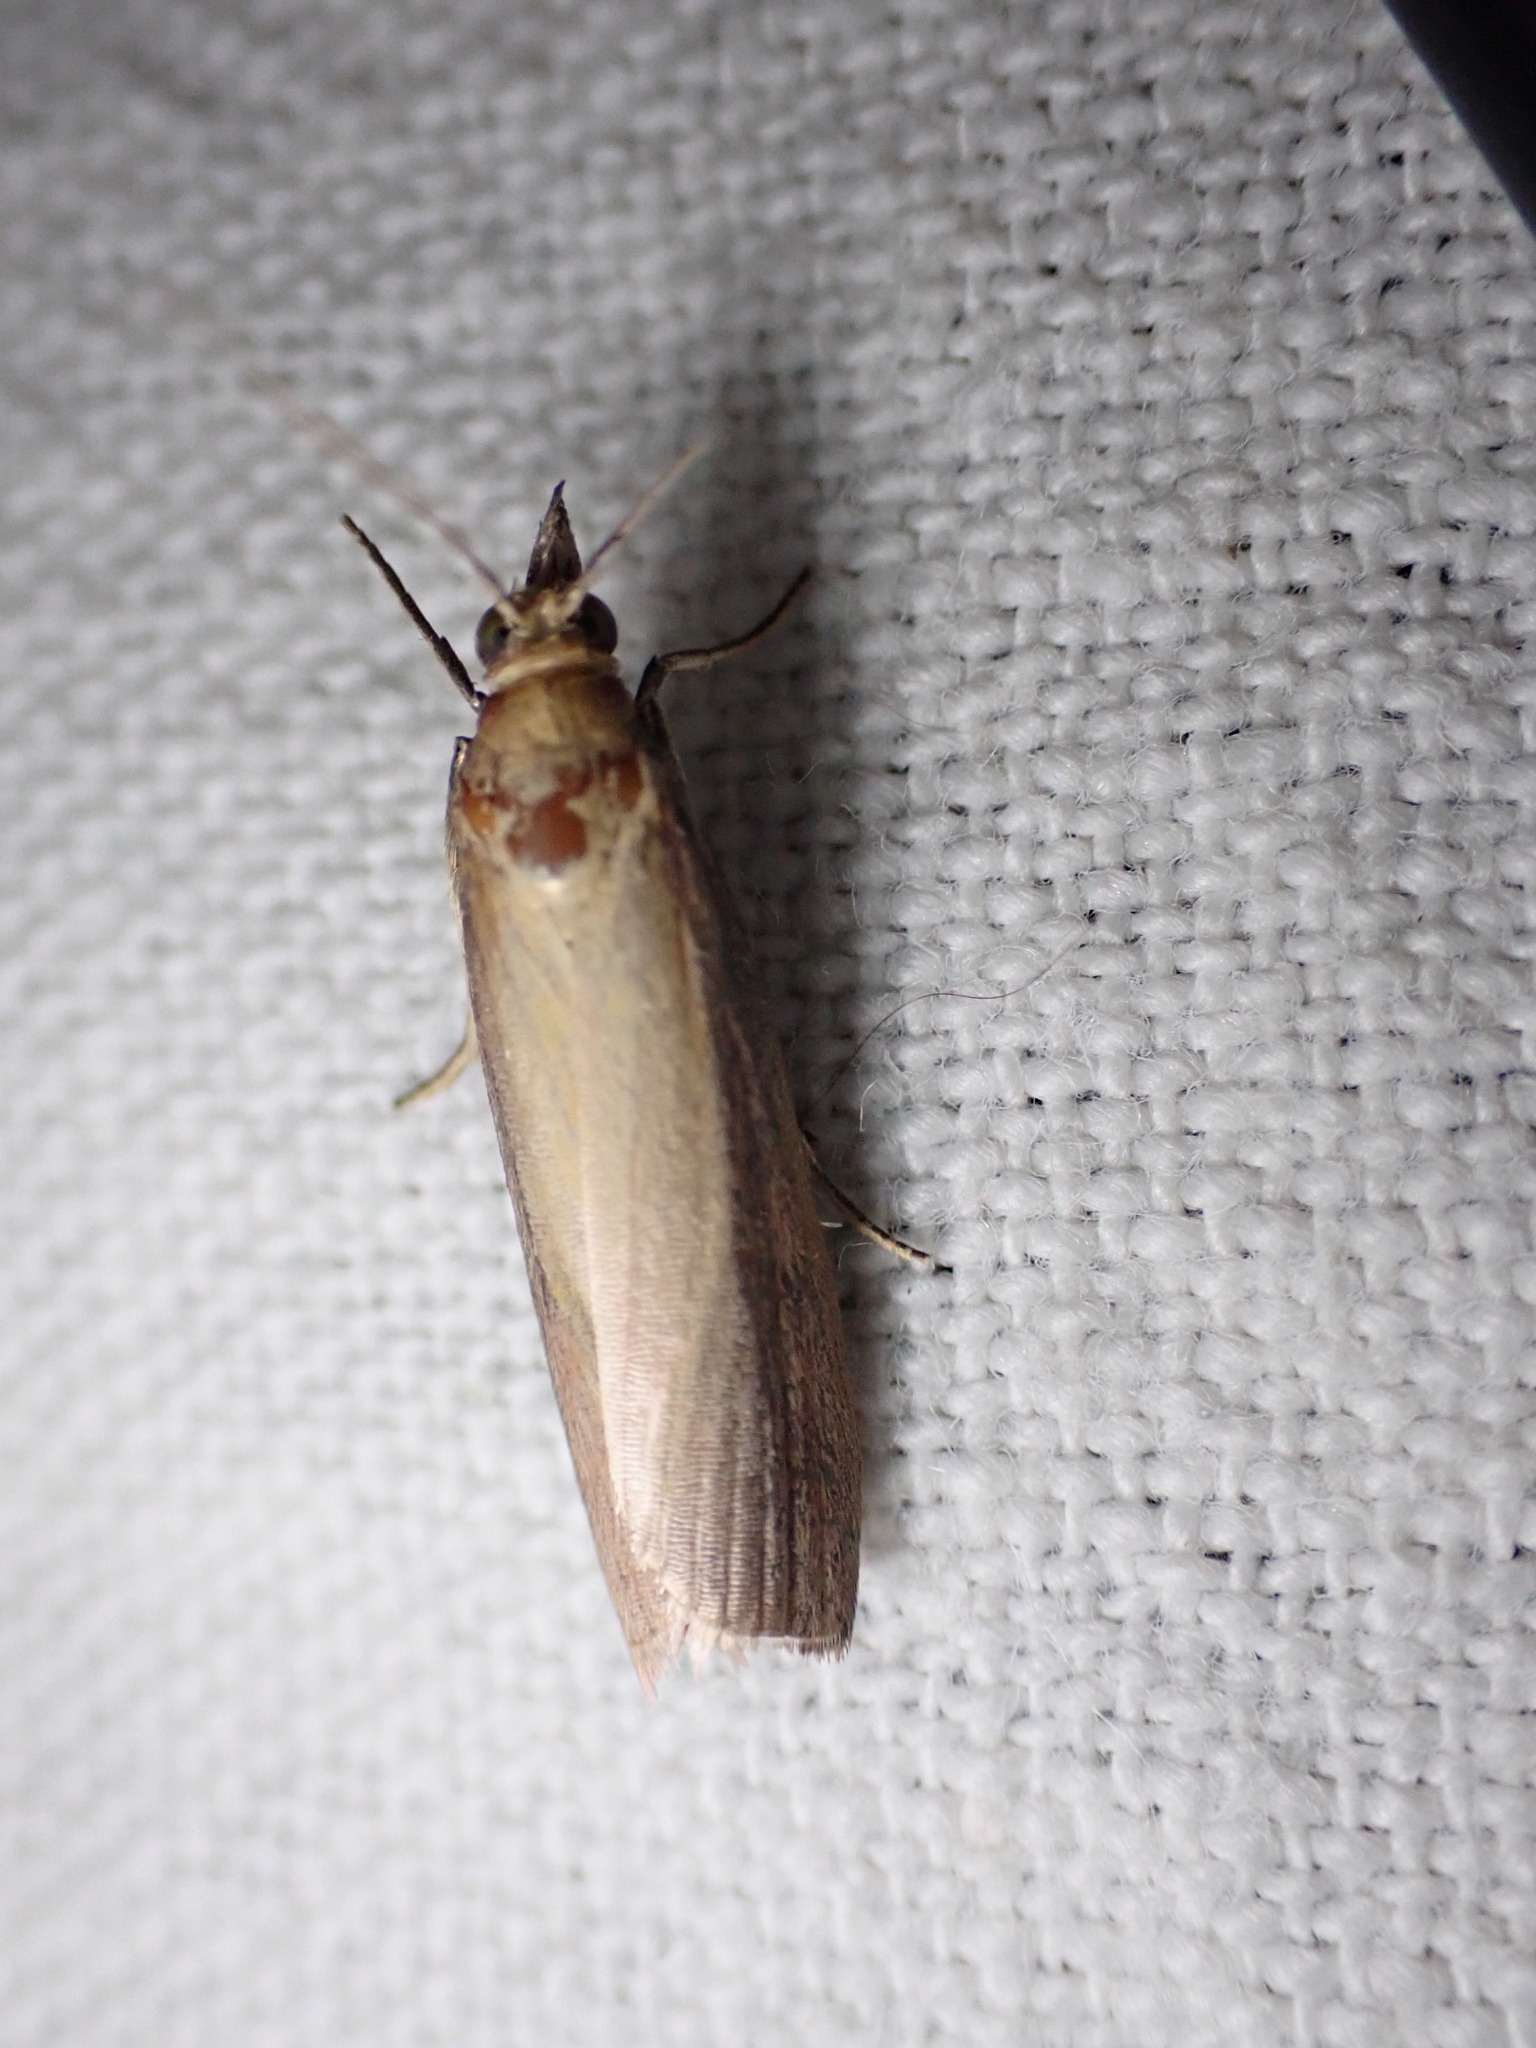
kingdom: Animalia
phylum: Arthropoda
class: Insecta
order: Lepidoptera
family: Pyralidae
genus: Oncocera
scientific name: Oncocera semirubella
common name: Rosy-striped knot-horn
